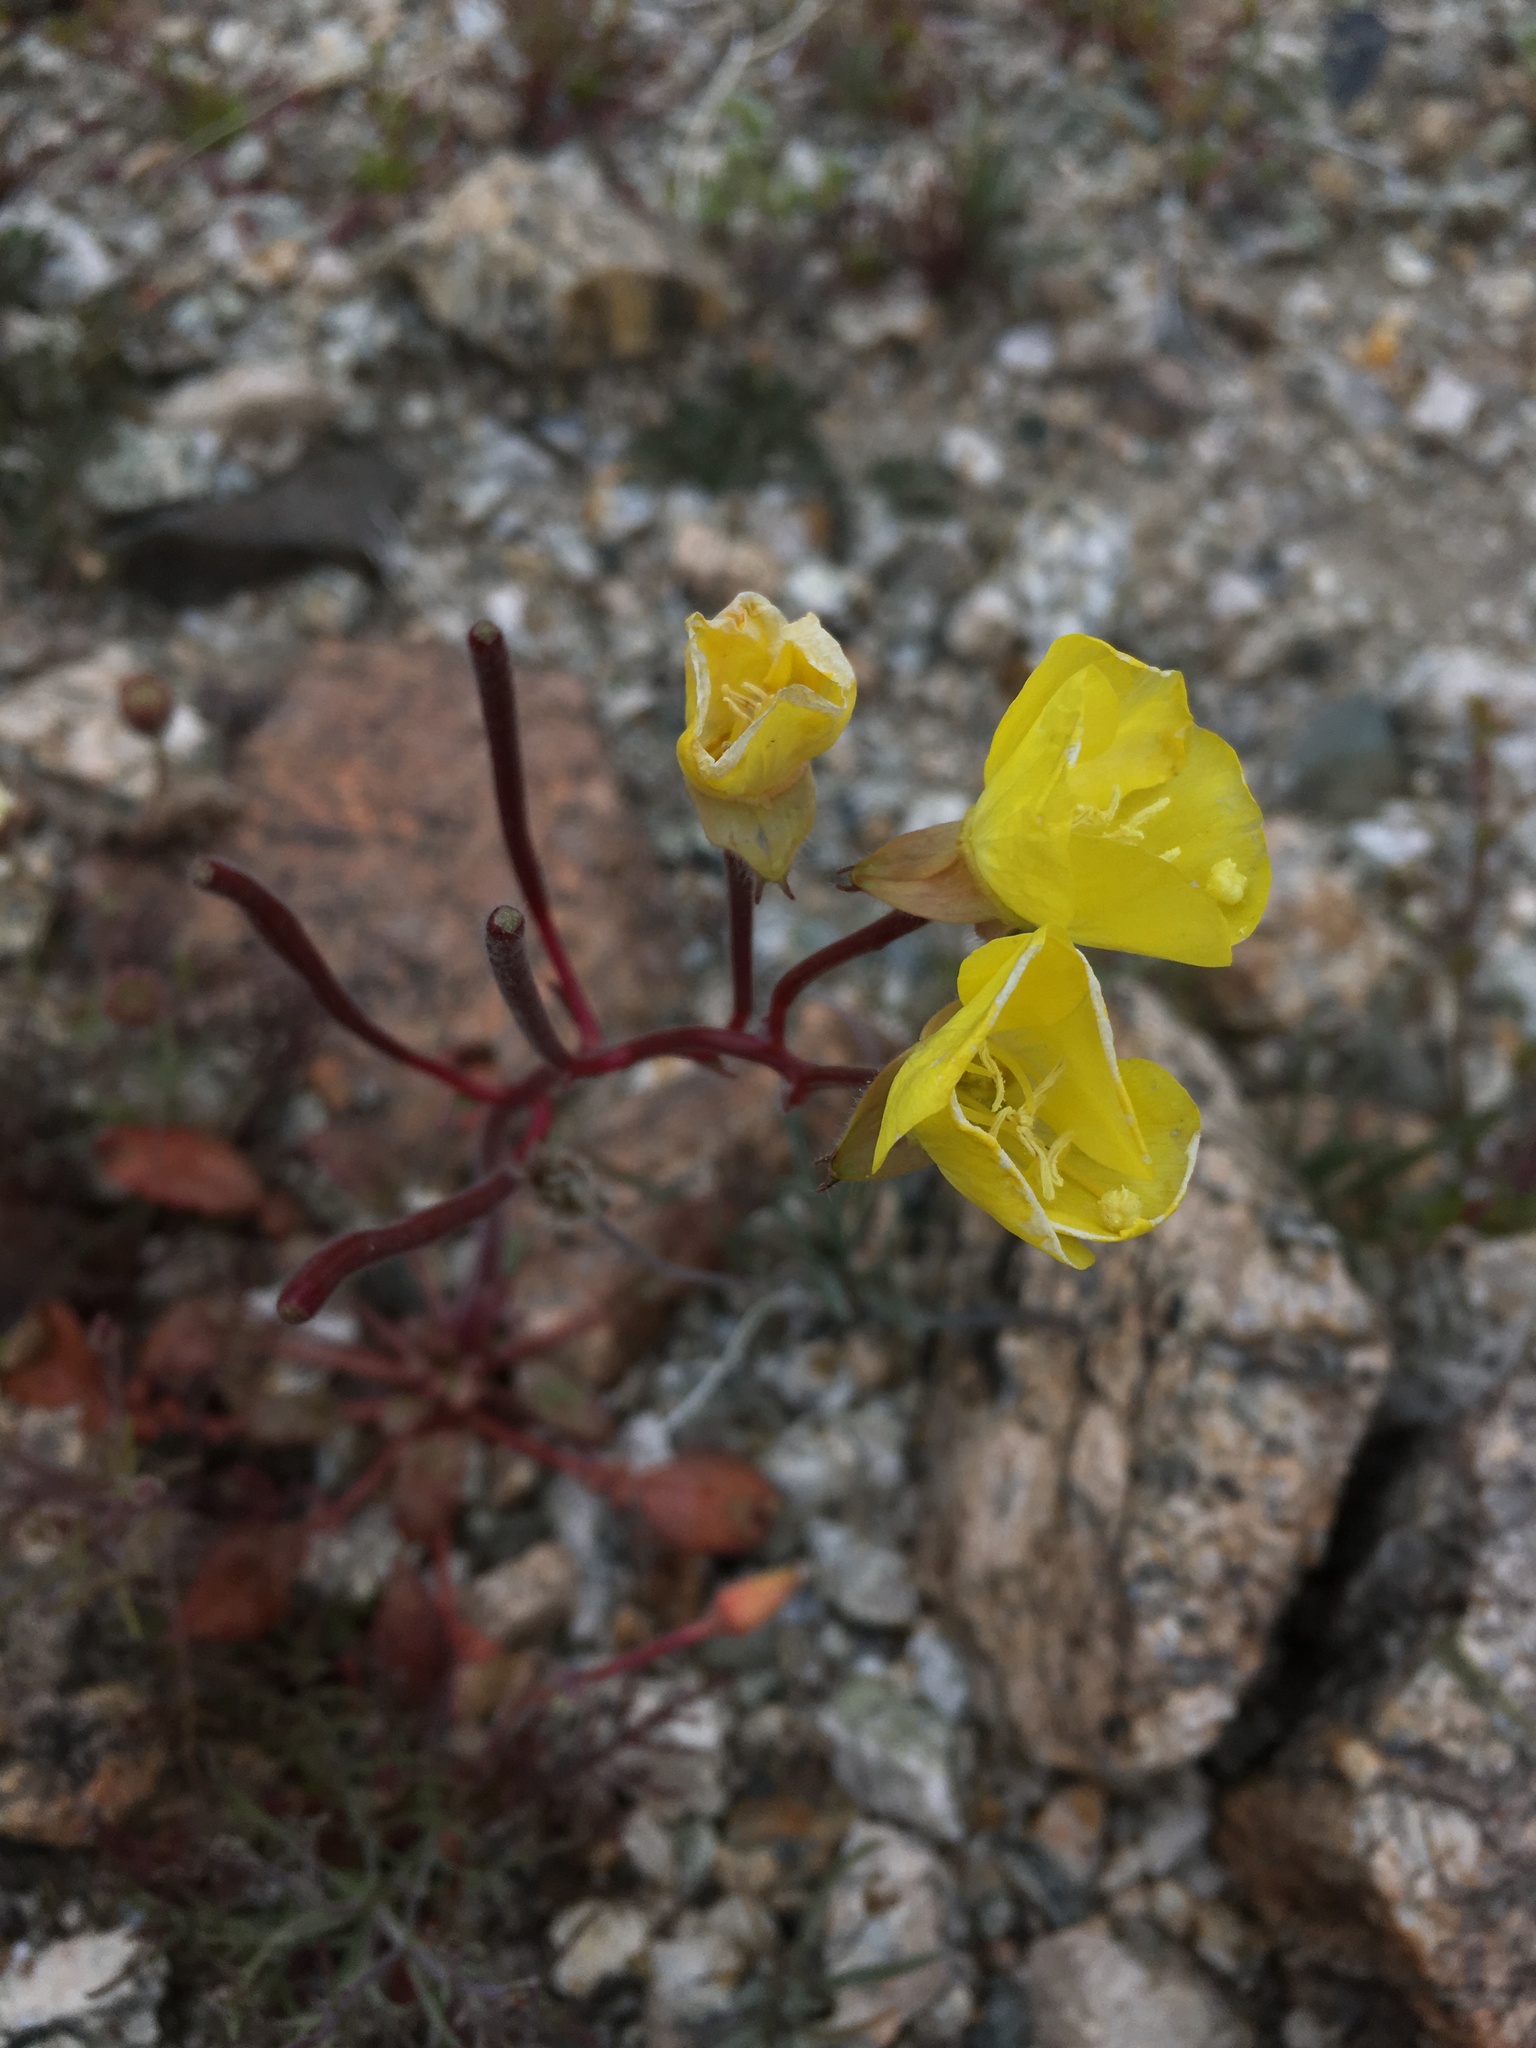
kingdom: Plantae
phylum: Tracheophyta
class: Magnoliopsida
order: Myrtales
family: Onagraceae
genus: Chylismia
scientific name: Chylismia brevipes
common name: Yellow cups
